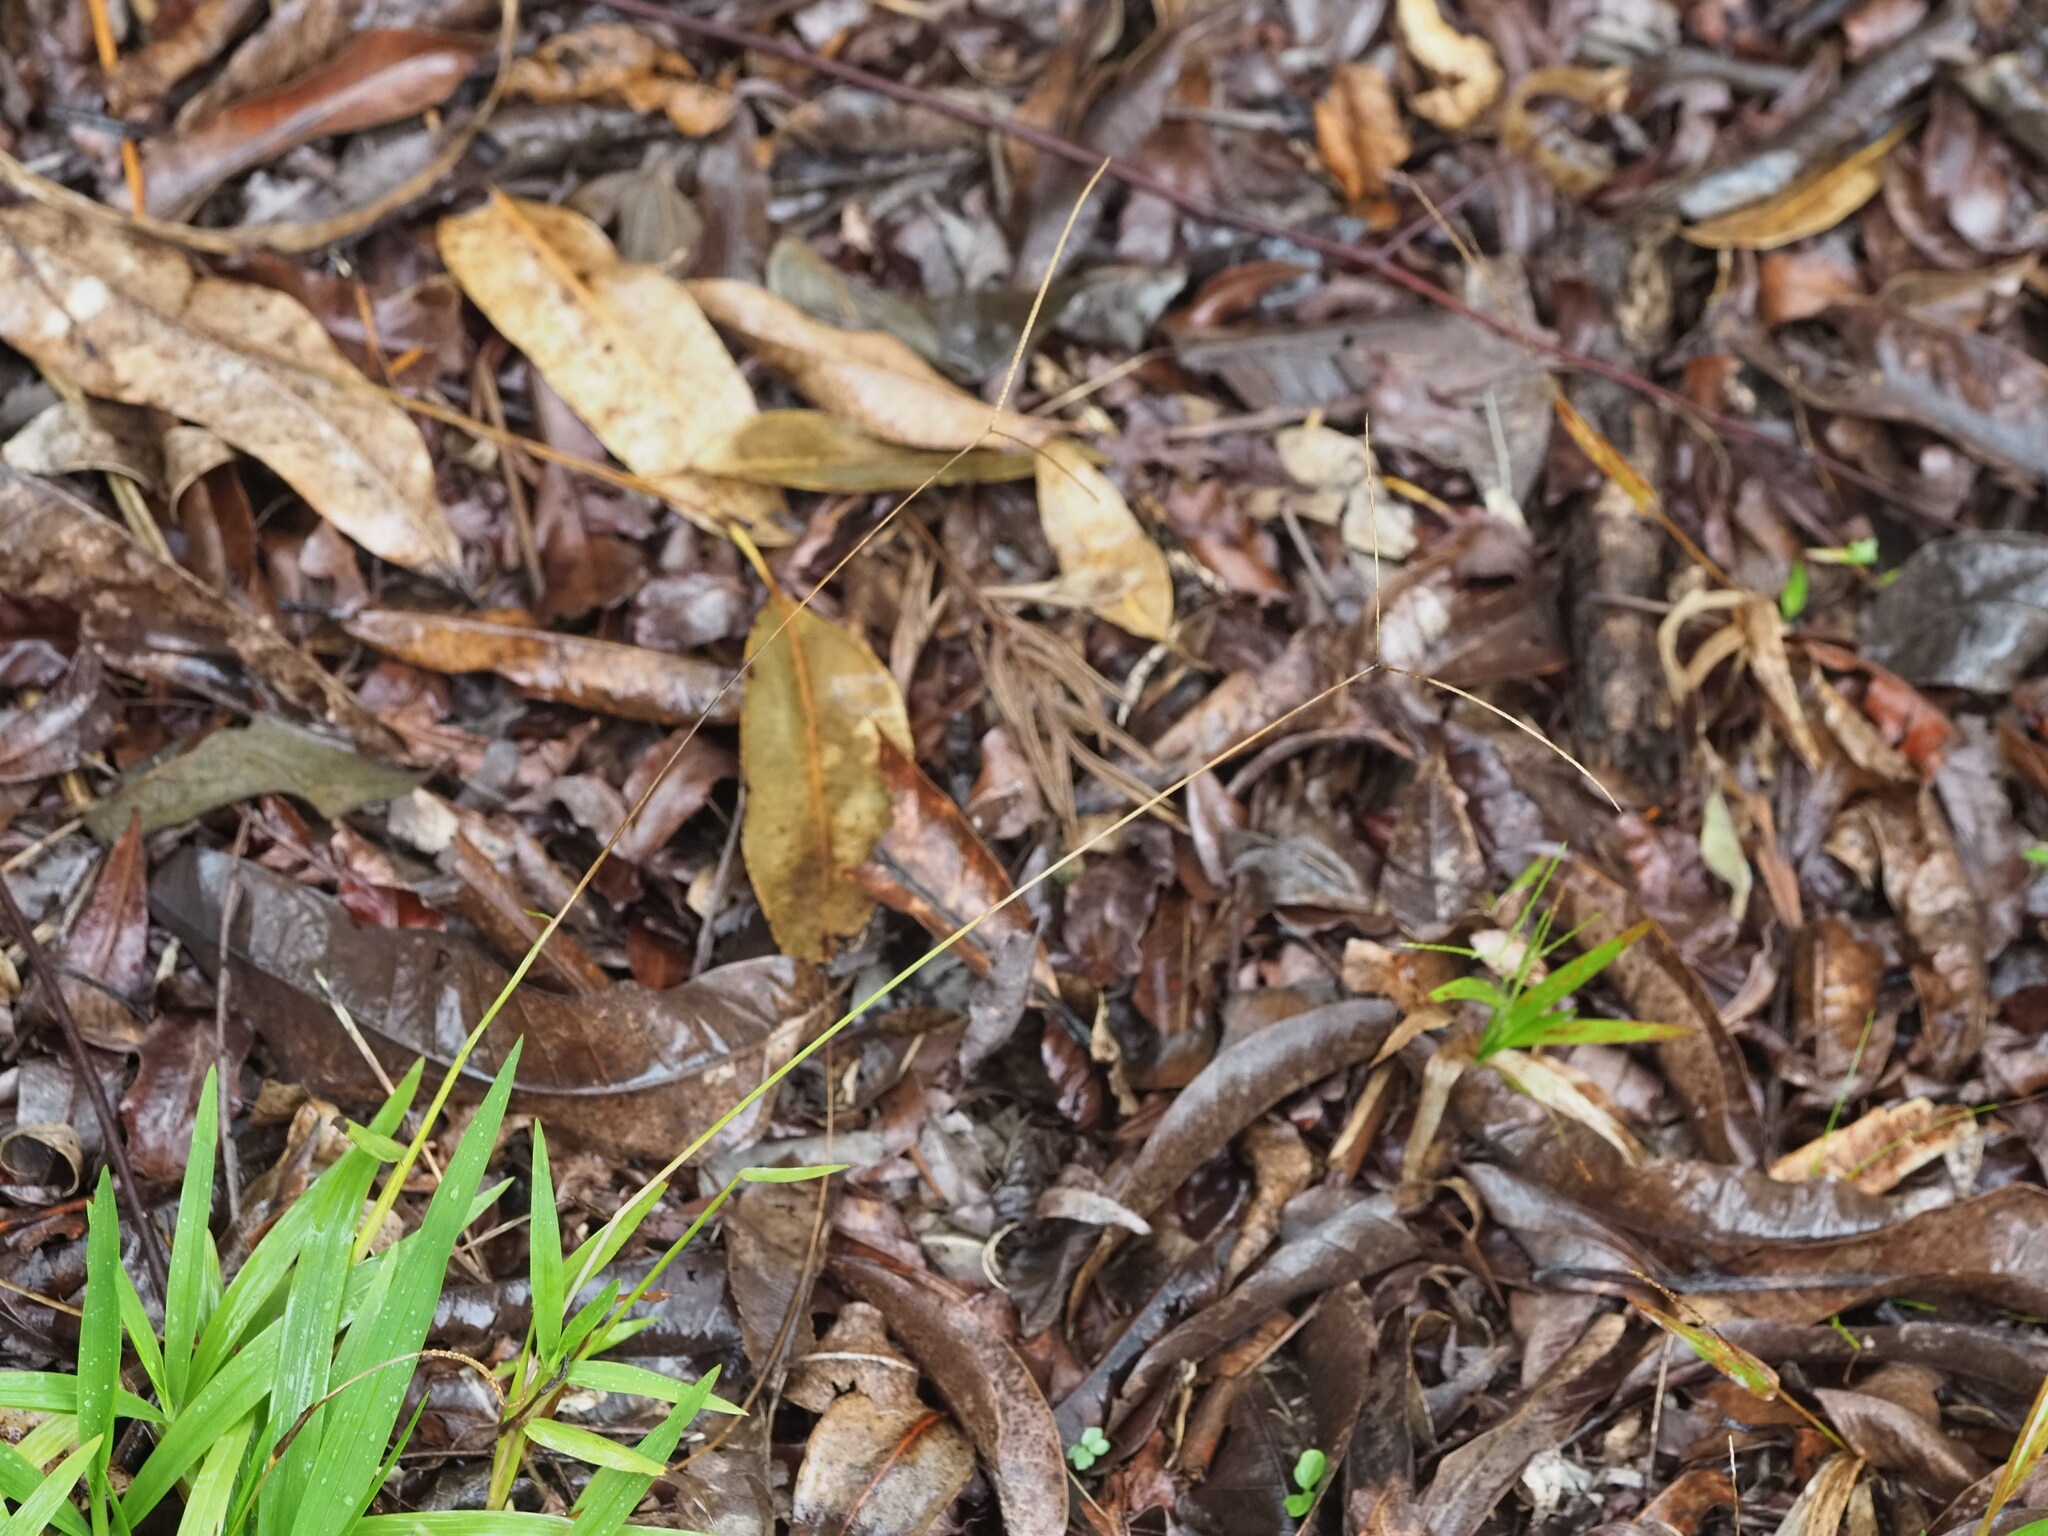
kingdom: Plantae
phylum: Tracheophyta
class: Liliopsida
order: Poales
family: Poaceae
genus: Paspalum
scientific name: Paspalum conjugatum
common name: Hilograss
